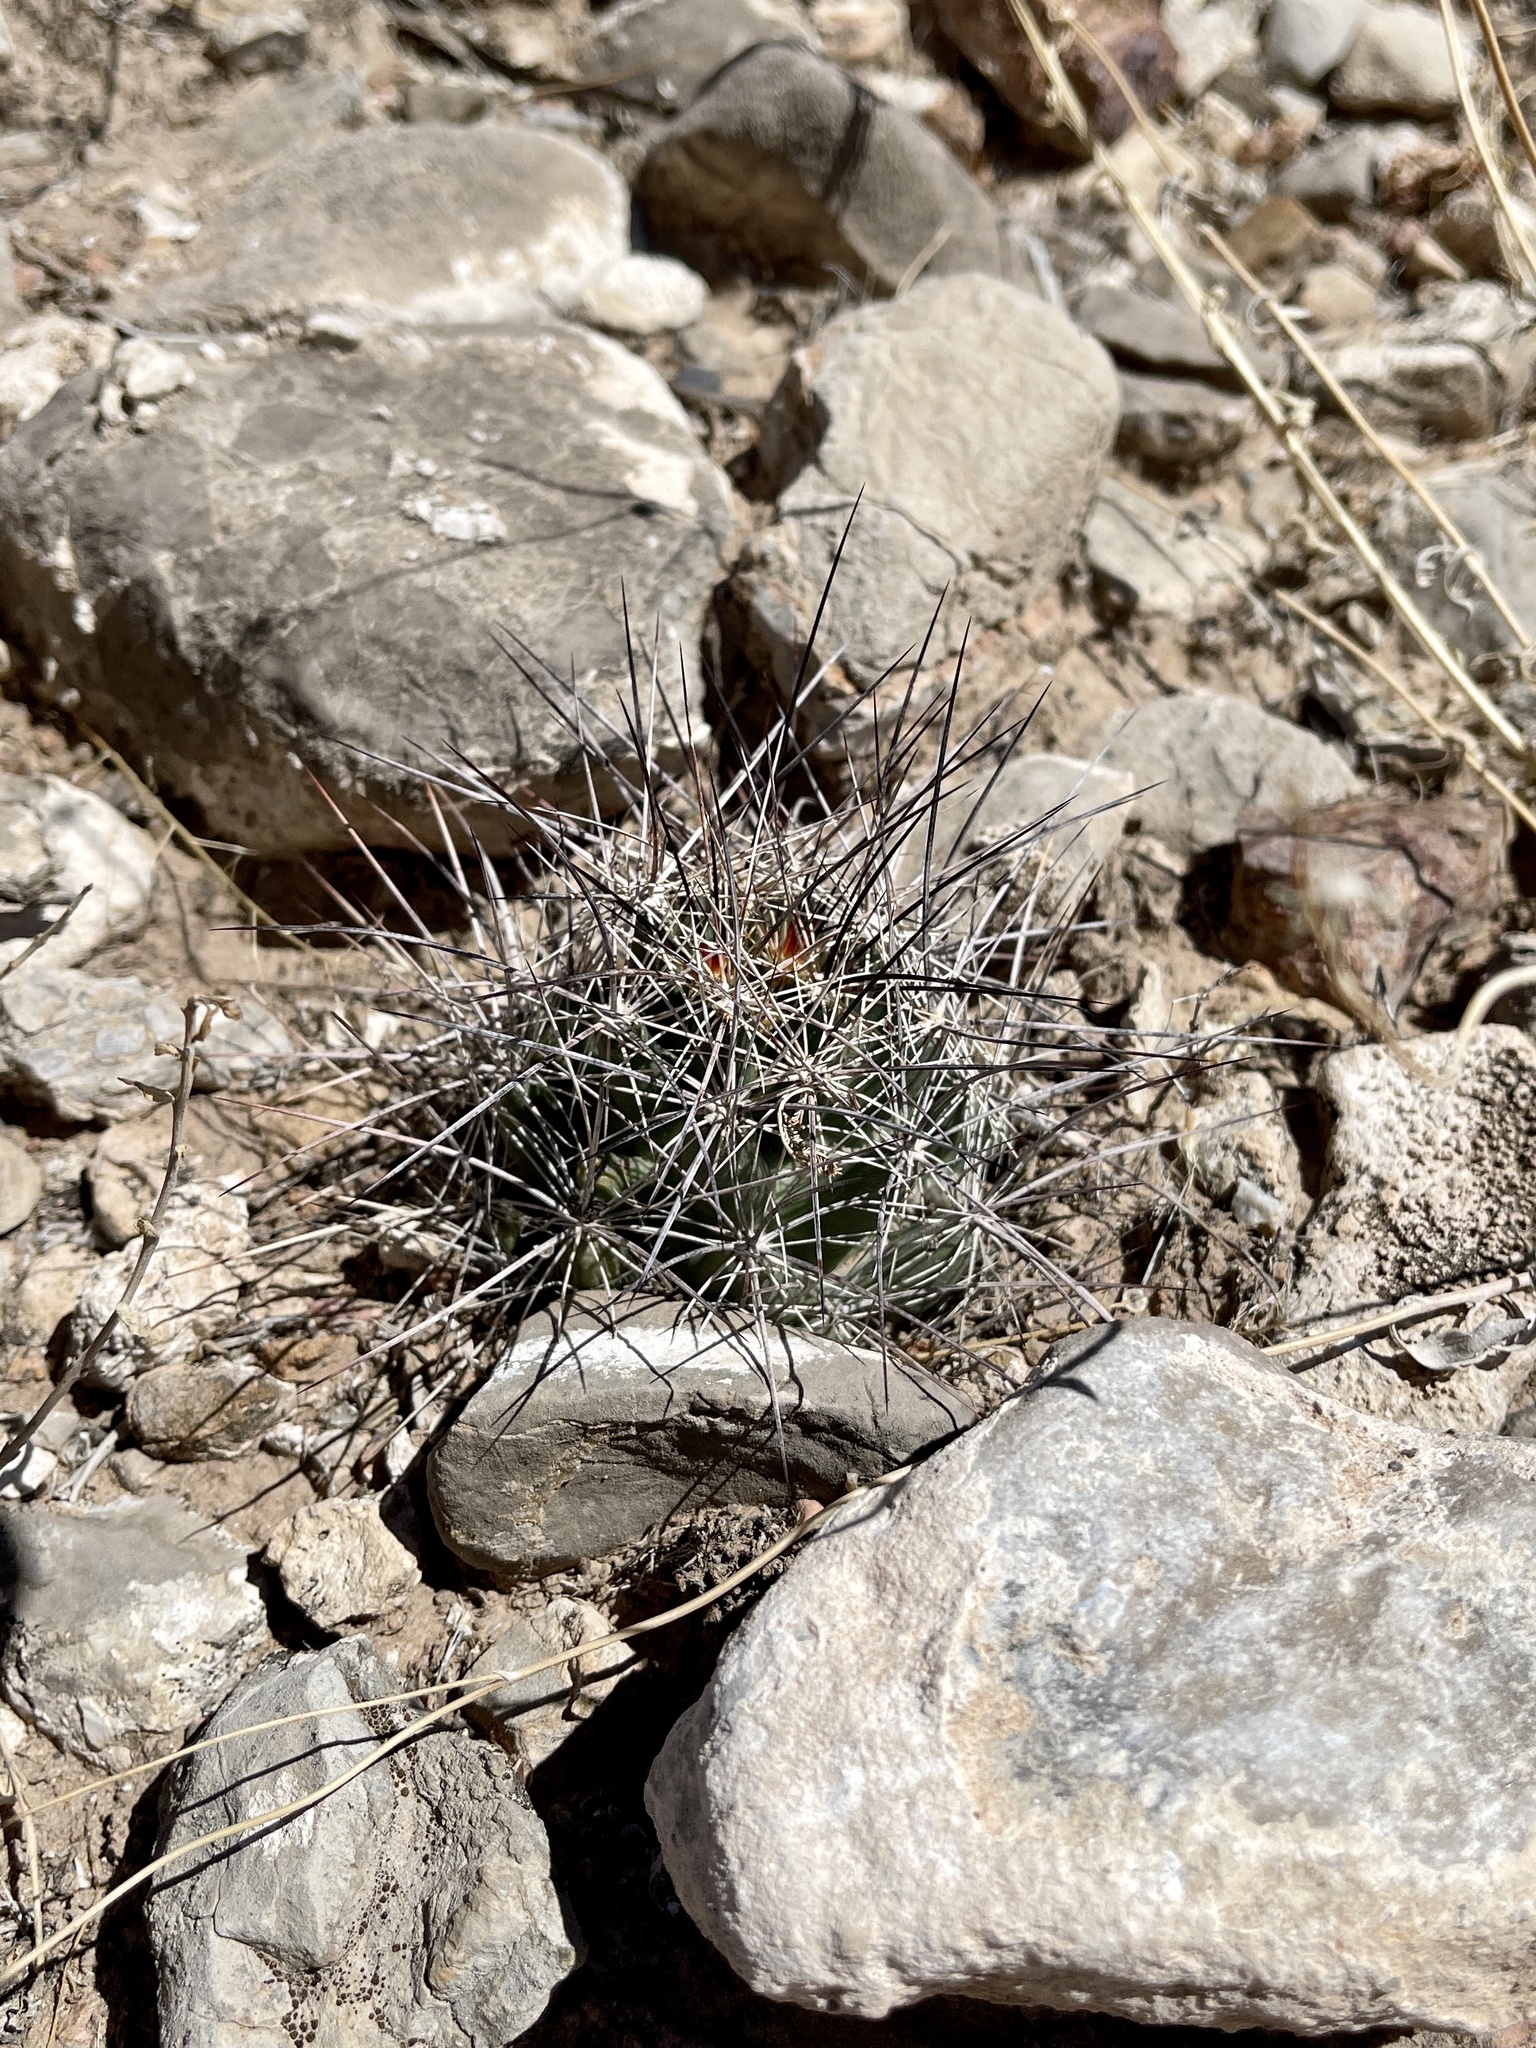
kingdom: Plantae
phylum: Tracheophyta
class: Magnoliopsida
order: Caryophyllales
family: Cactaceae
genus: Coryphantha
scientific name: Coryphantha macromeris
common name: Nipple beehive cactus
